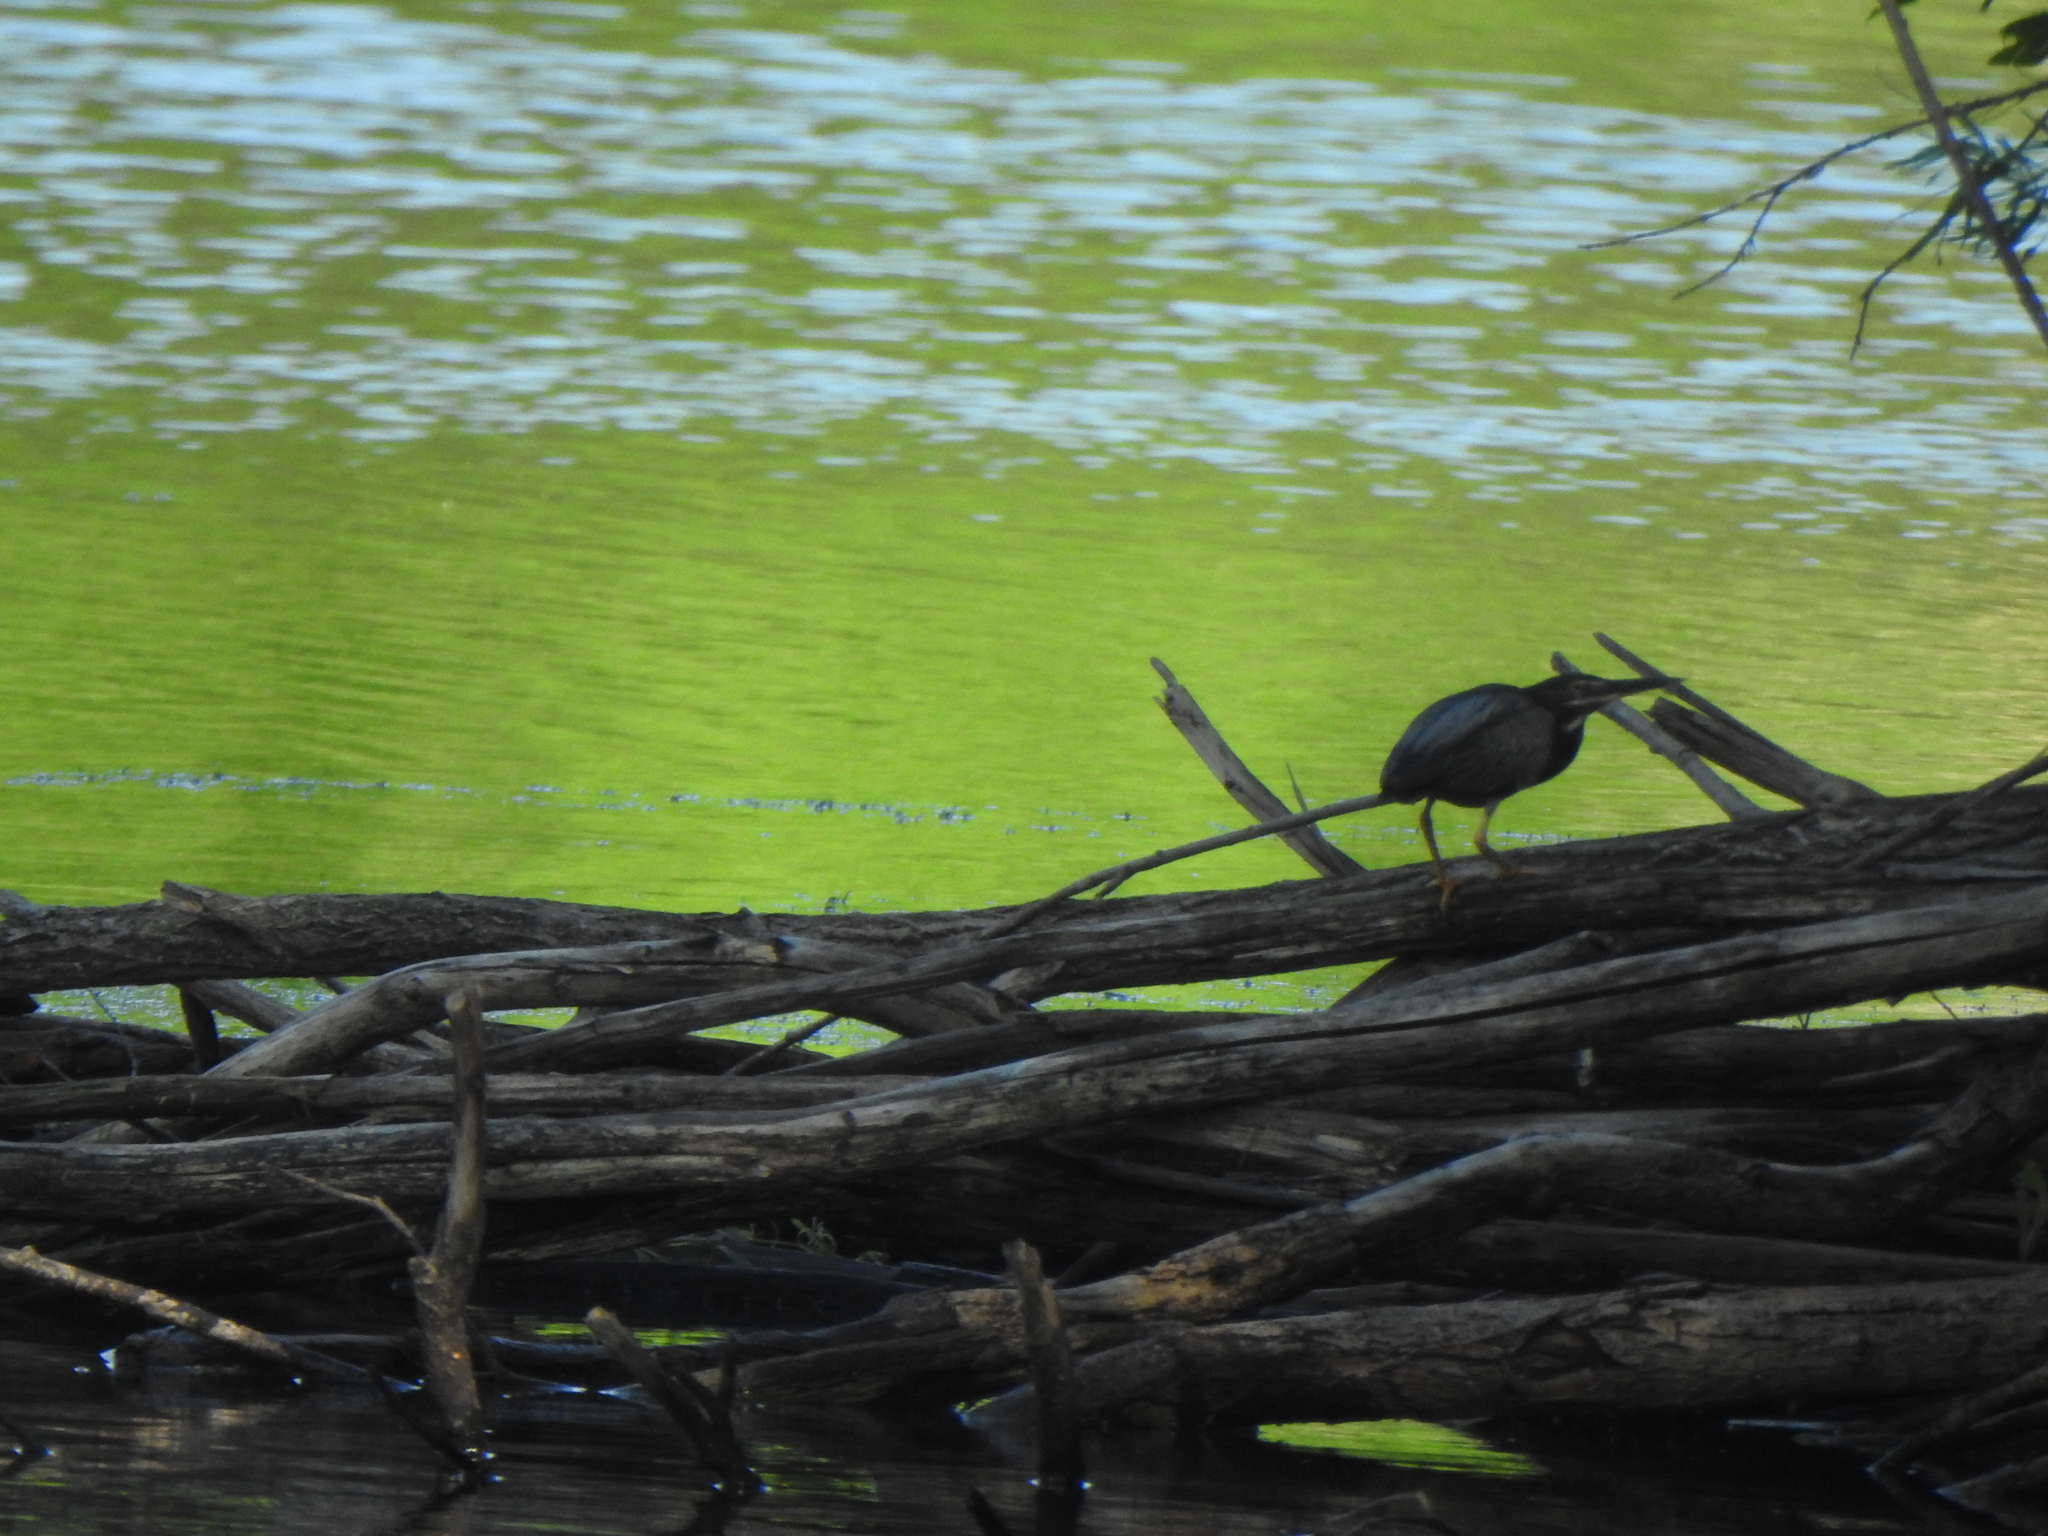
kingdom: Animalia
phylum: Chordata
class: Aves
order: Pelecaniformes
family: Ardeidae
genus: Butorides
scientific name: Butorides virescens
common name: Green heron
